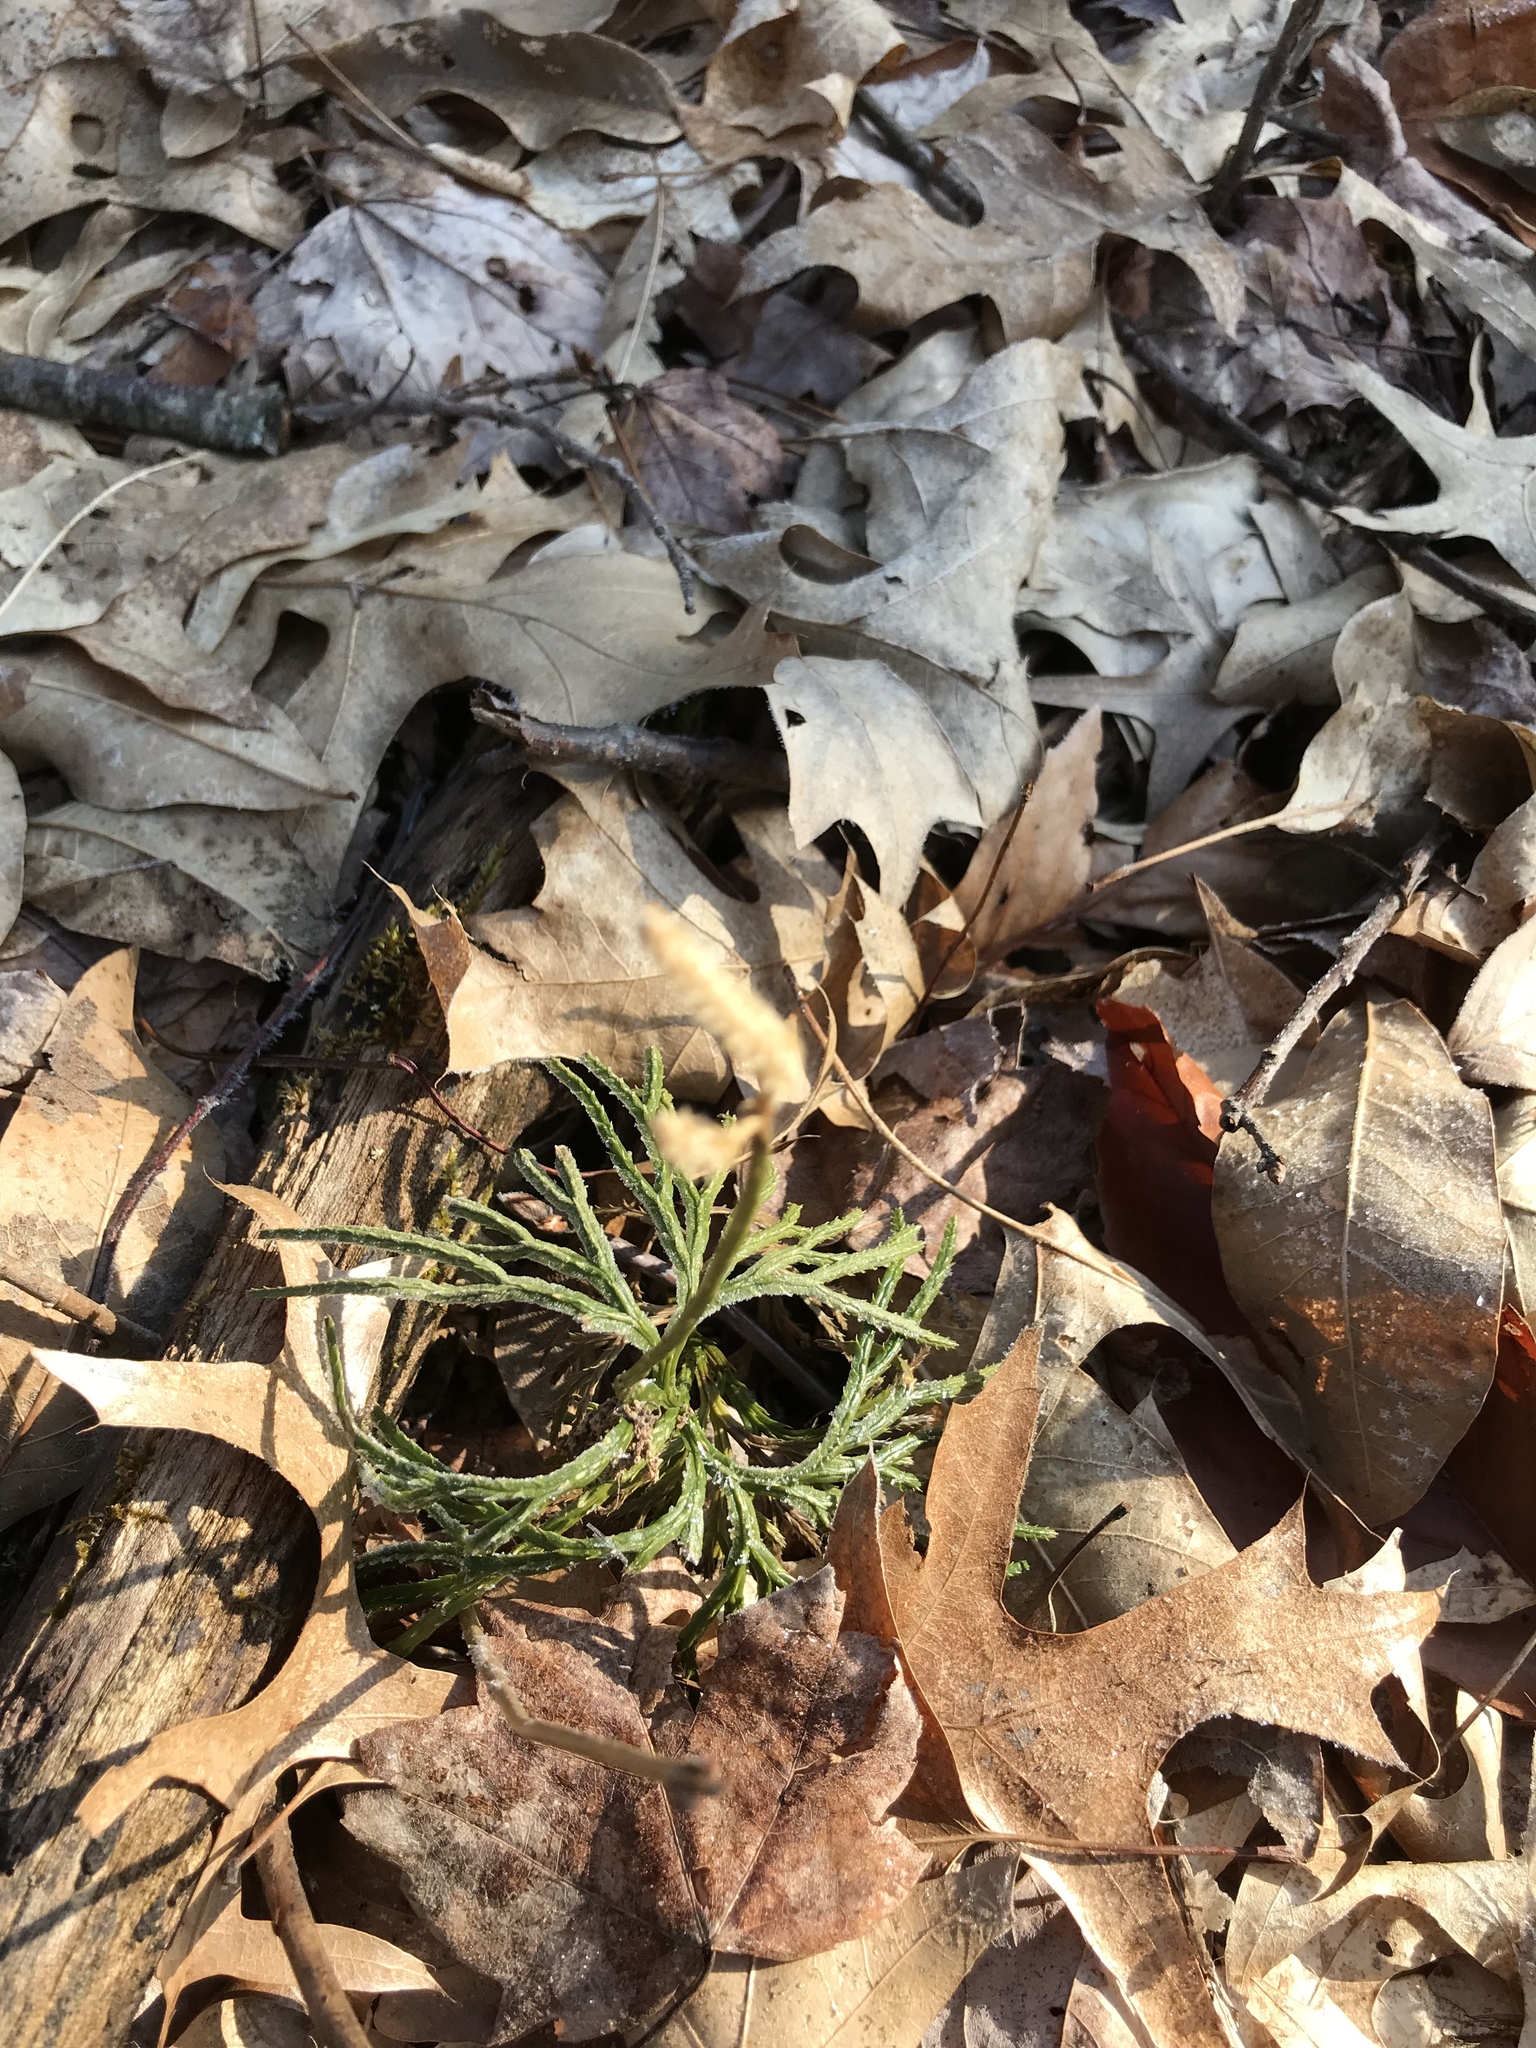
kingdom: Plantae
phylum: Tracheophyta
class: Lycopodiopsida
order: Lycopodiales
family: Lycopodiaceae
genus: Diphasiastrum
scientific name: Diphasiastrum digitatum
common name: Southern running-pine
